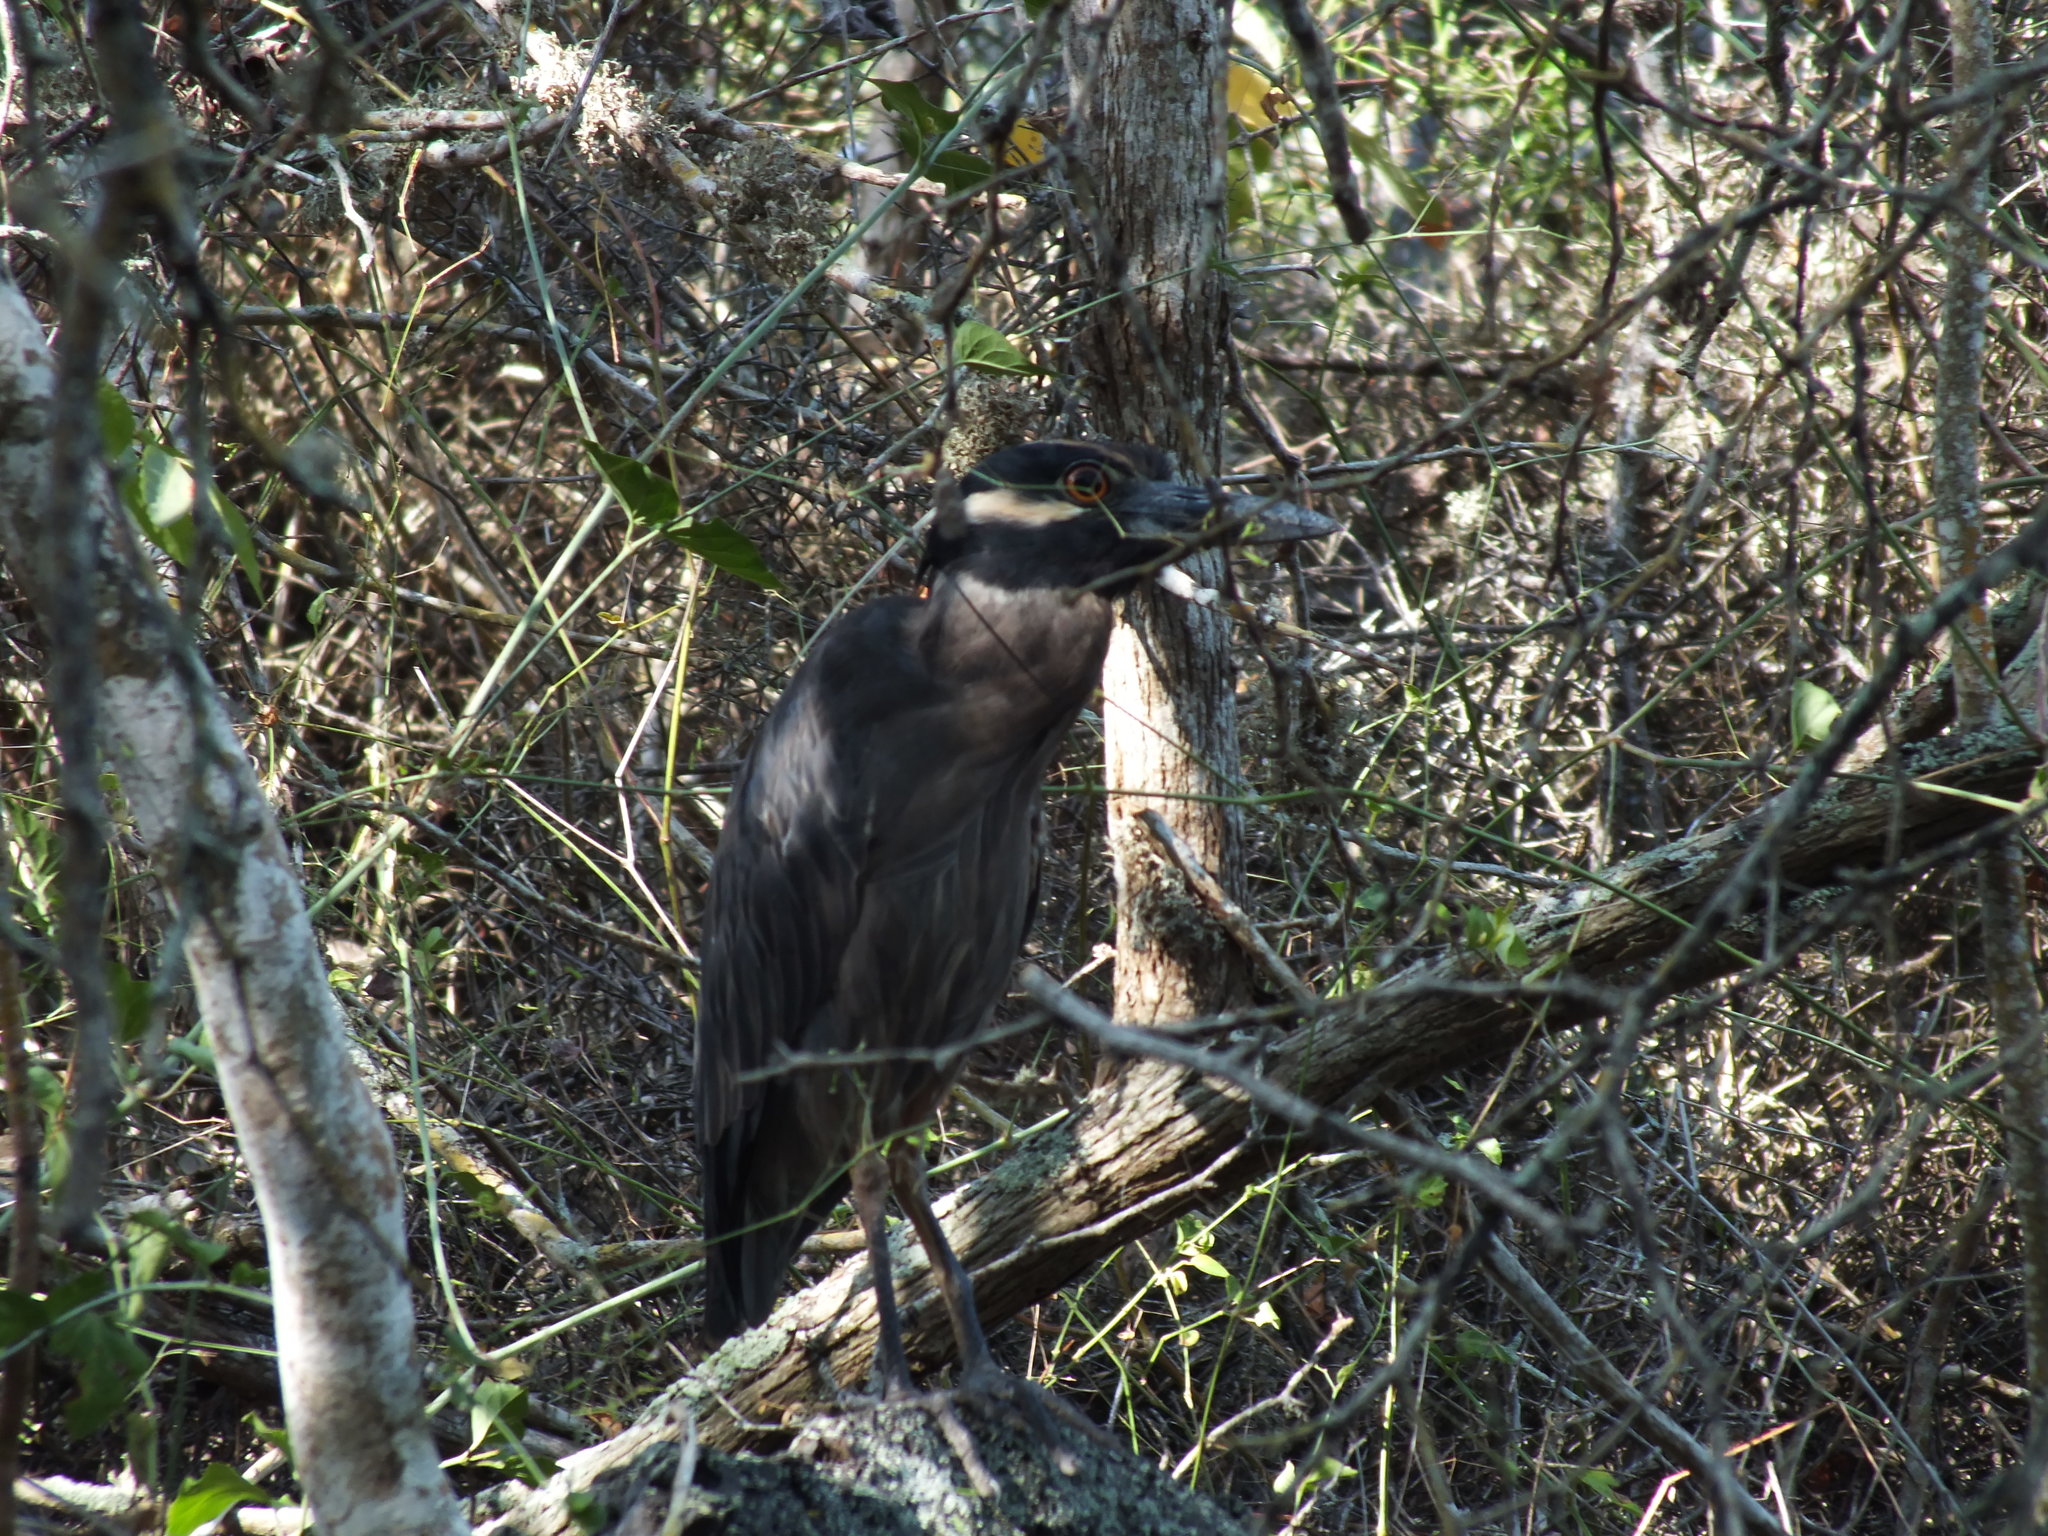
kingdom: Animalia
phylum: Chordata
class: Aves
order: Pelecaniformes
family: Ardeidae
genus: Nyctanassa
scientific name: Nyctanassa violacea
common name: Yellow-crowned night heron
